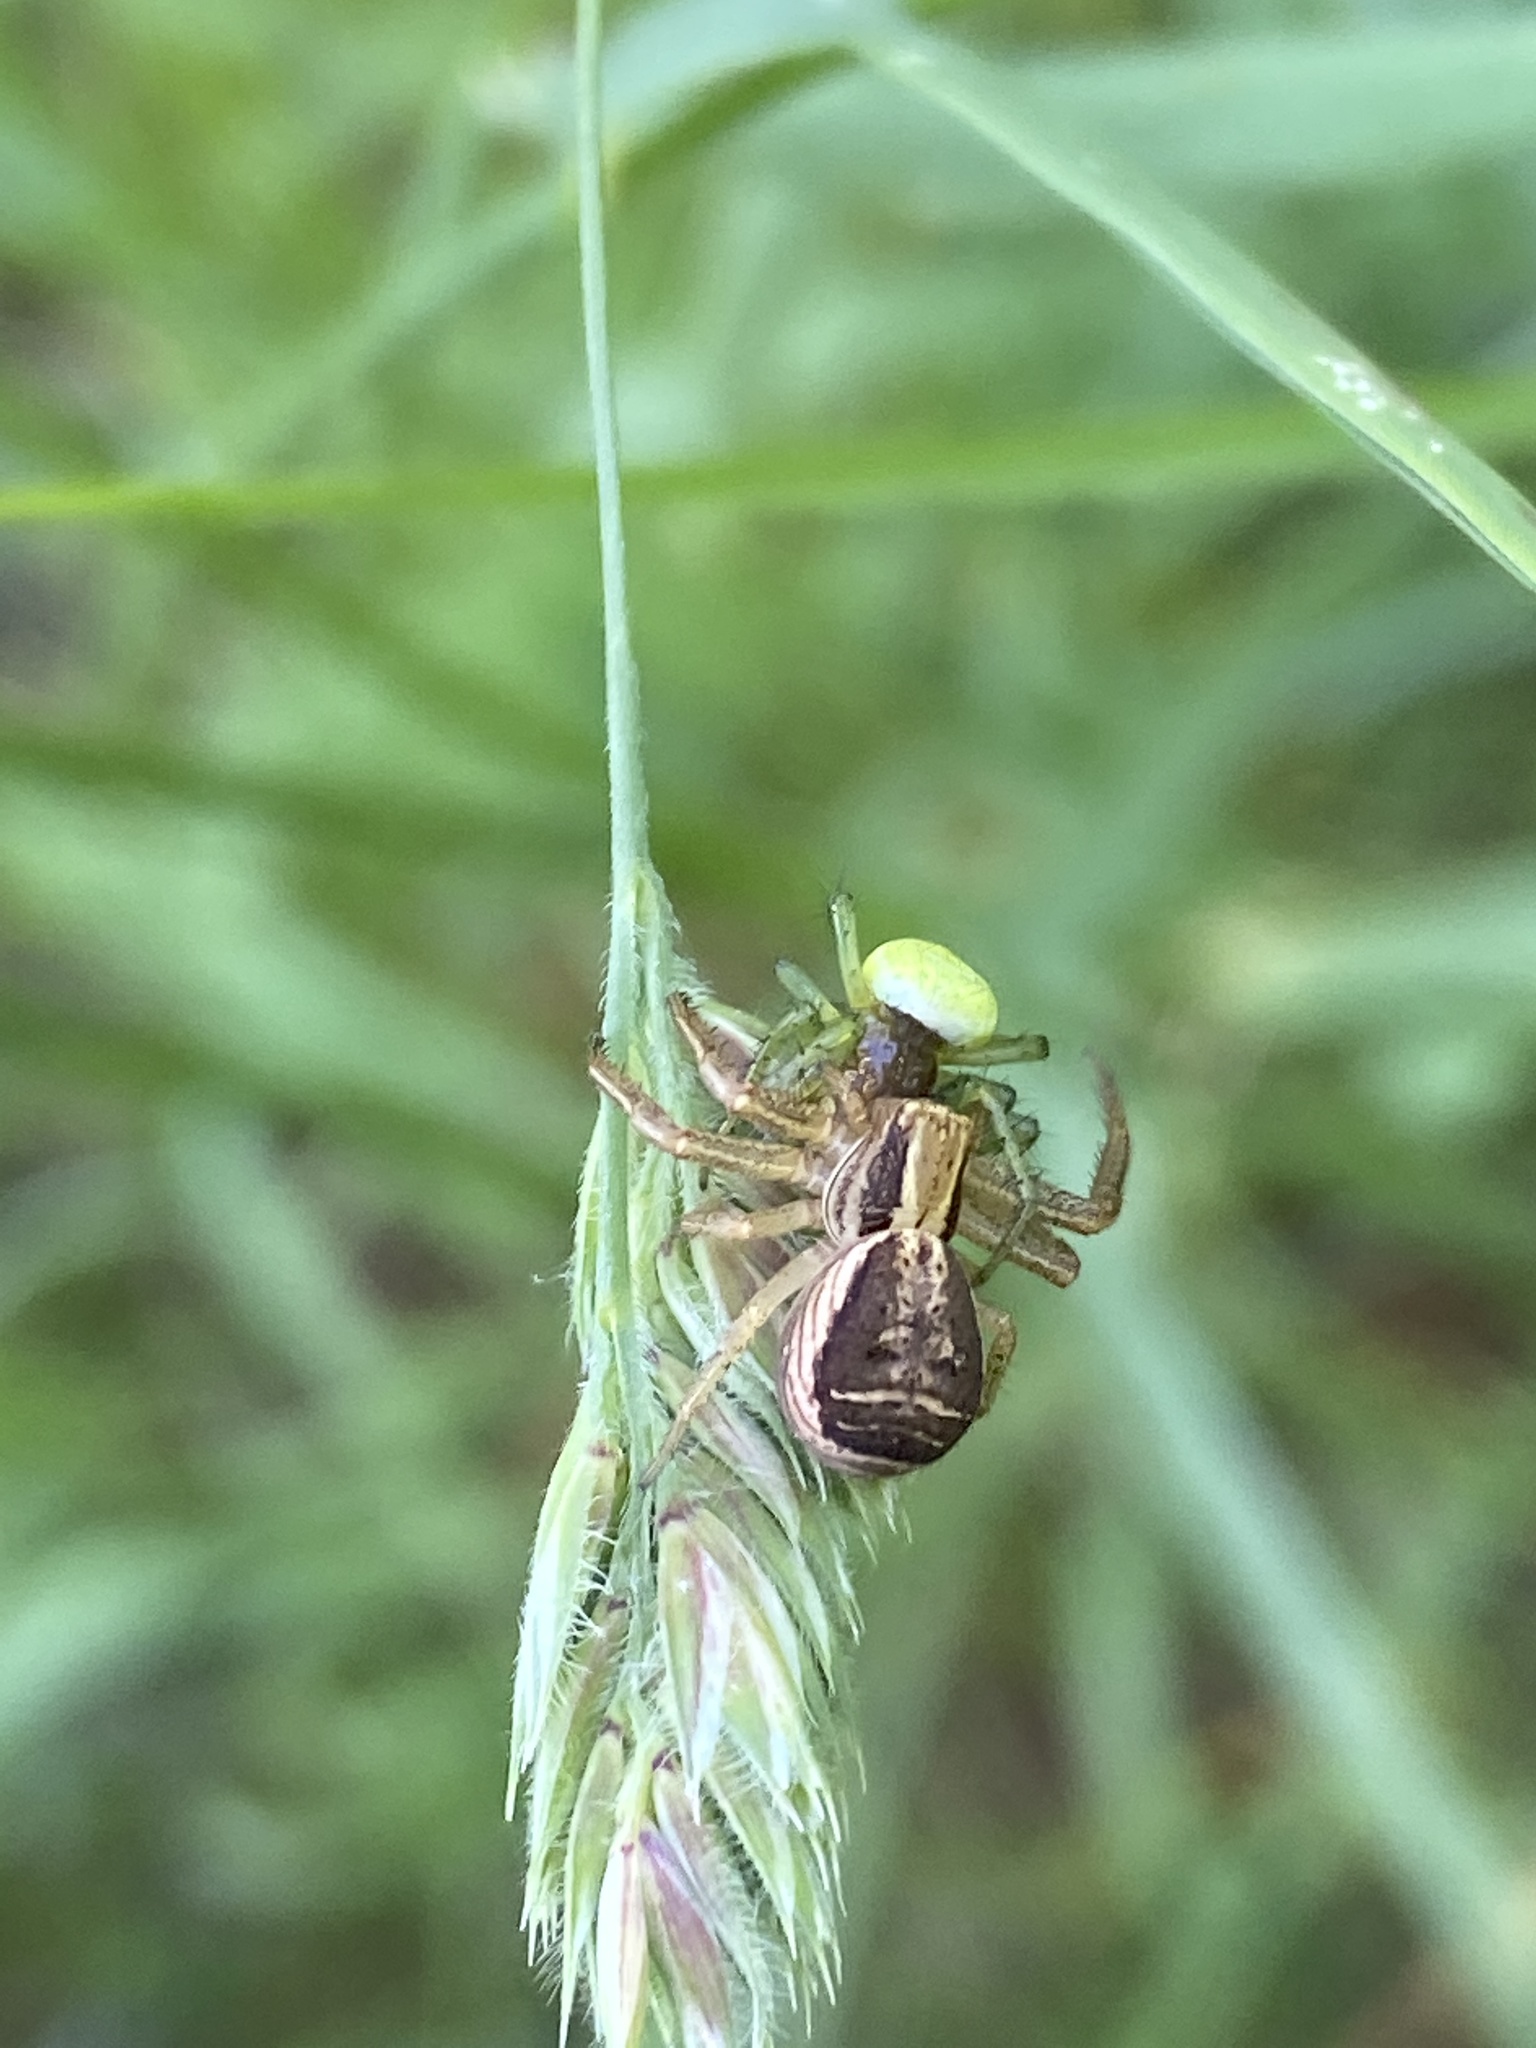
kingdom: Animalia
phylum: Arthropoda
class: Arachnida
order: Araneae
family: Thomisidae
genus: Xysticus
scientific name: Xysticus ulmi
